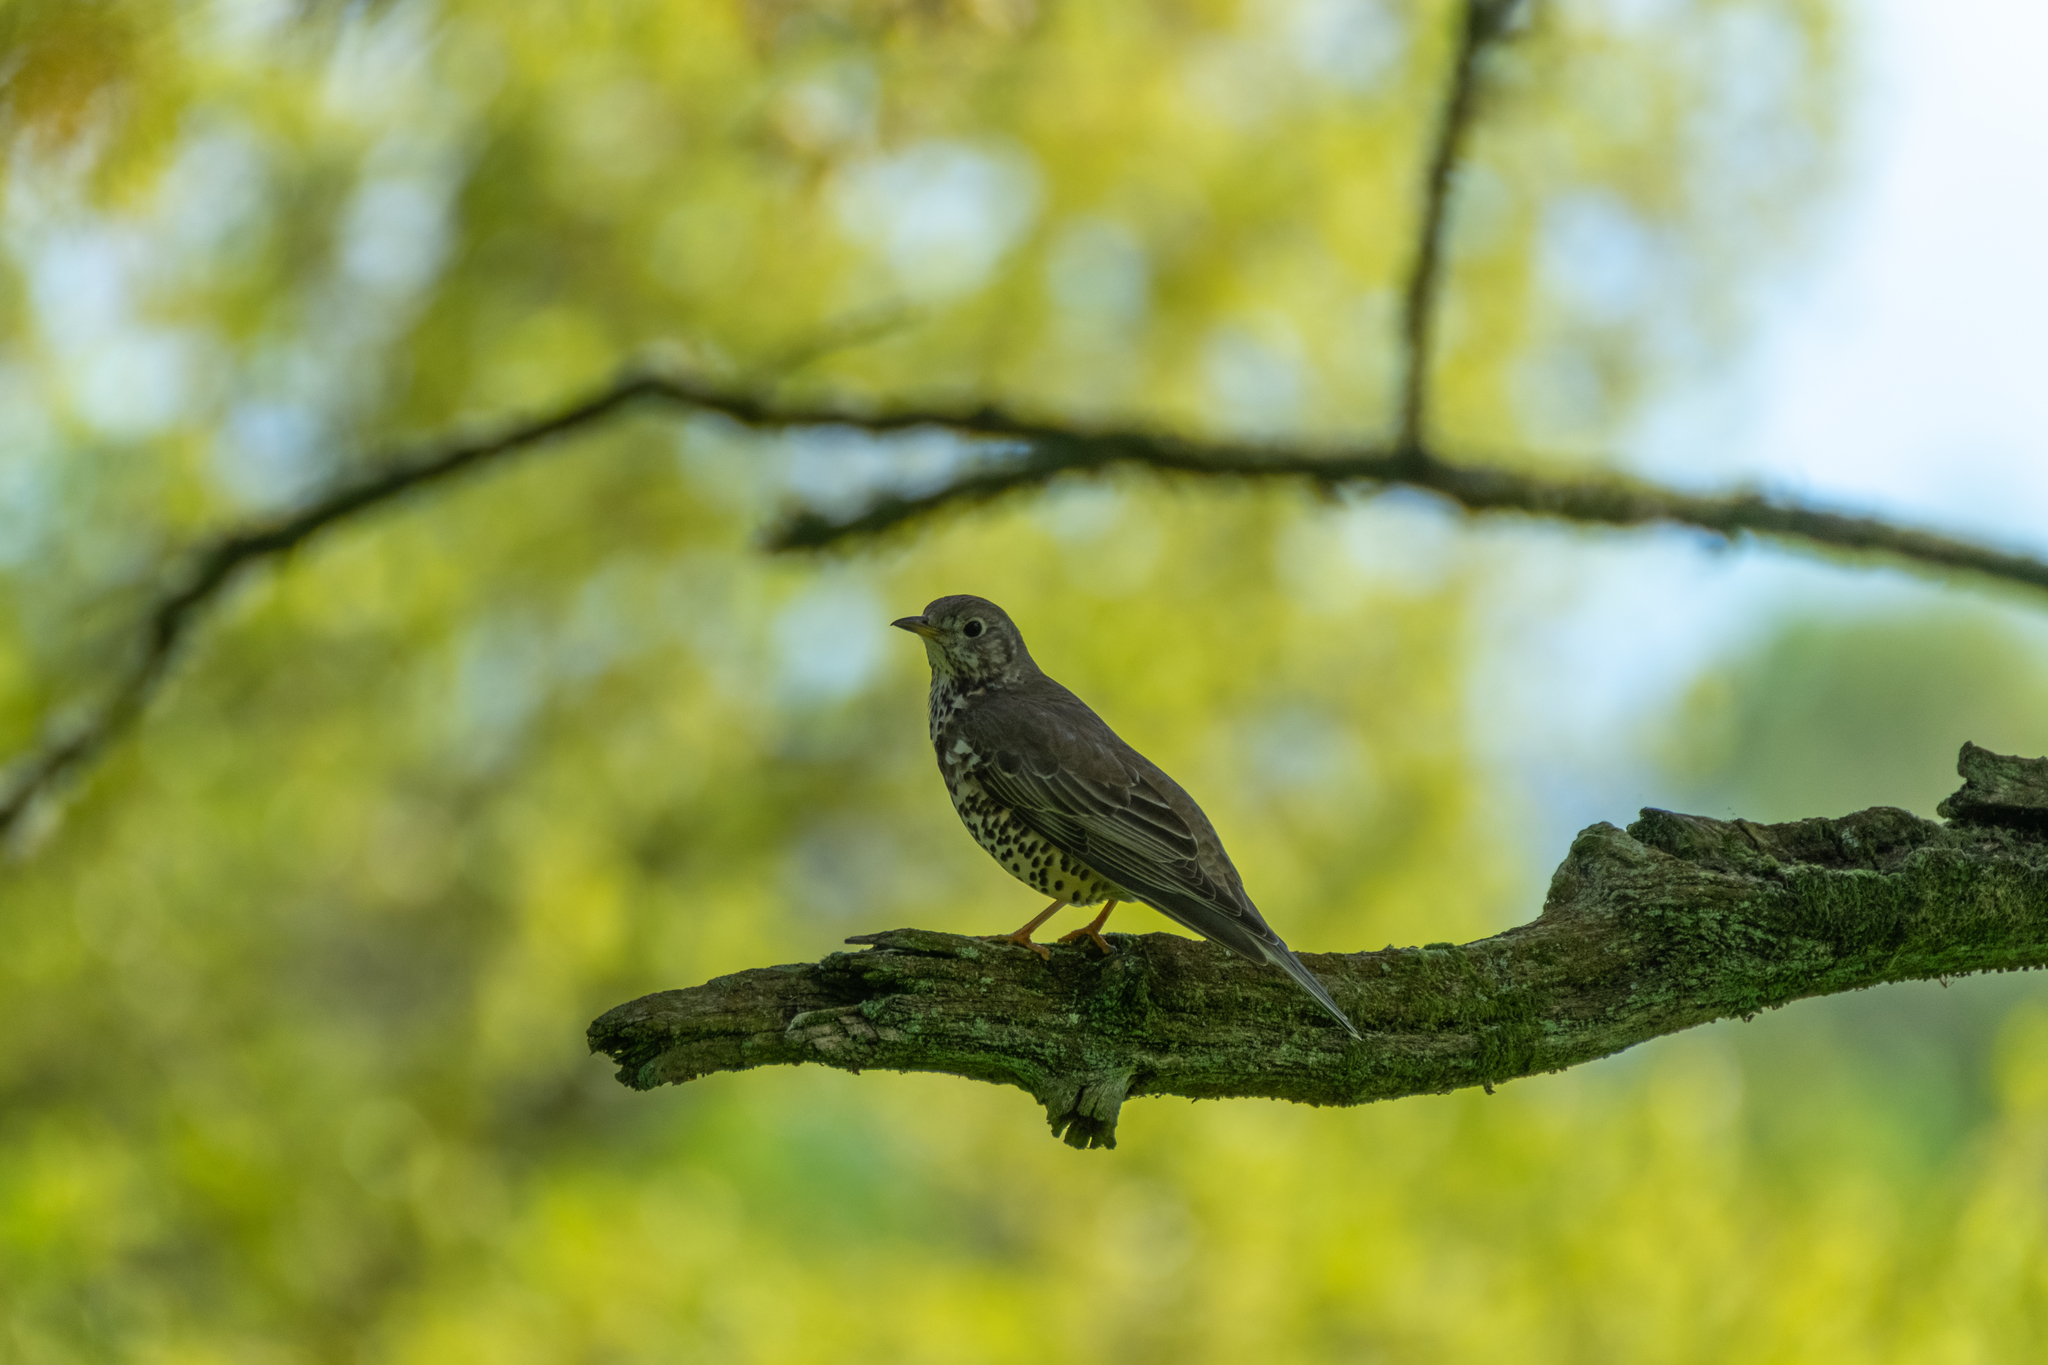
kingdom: Animalia
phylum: Chordata
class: Aves
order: Passeriformes
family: Turdidae
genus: Turdus
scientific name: Turdus viscivorus
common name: Mistle thrush
